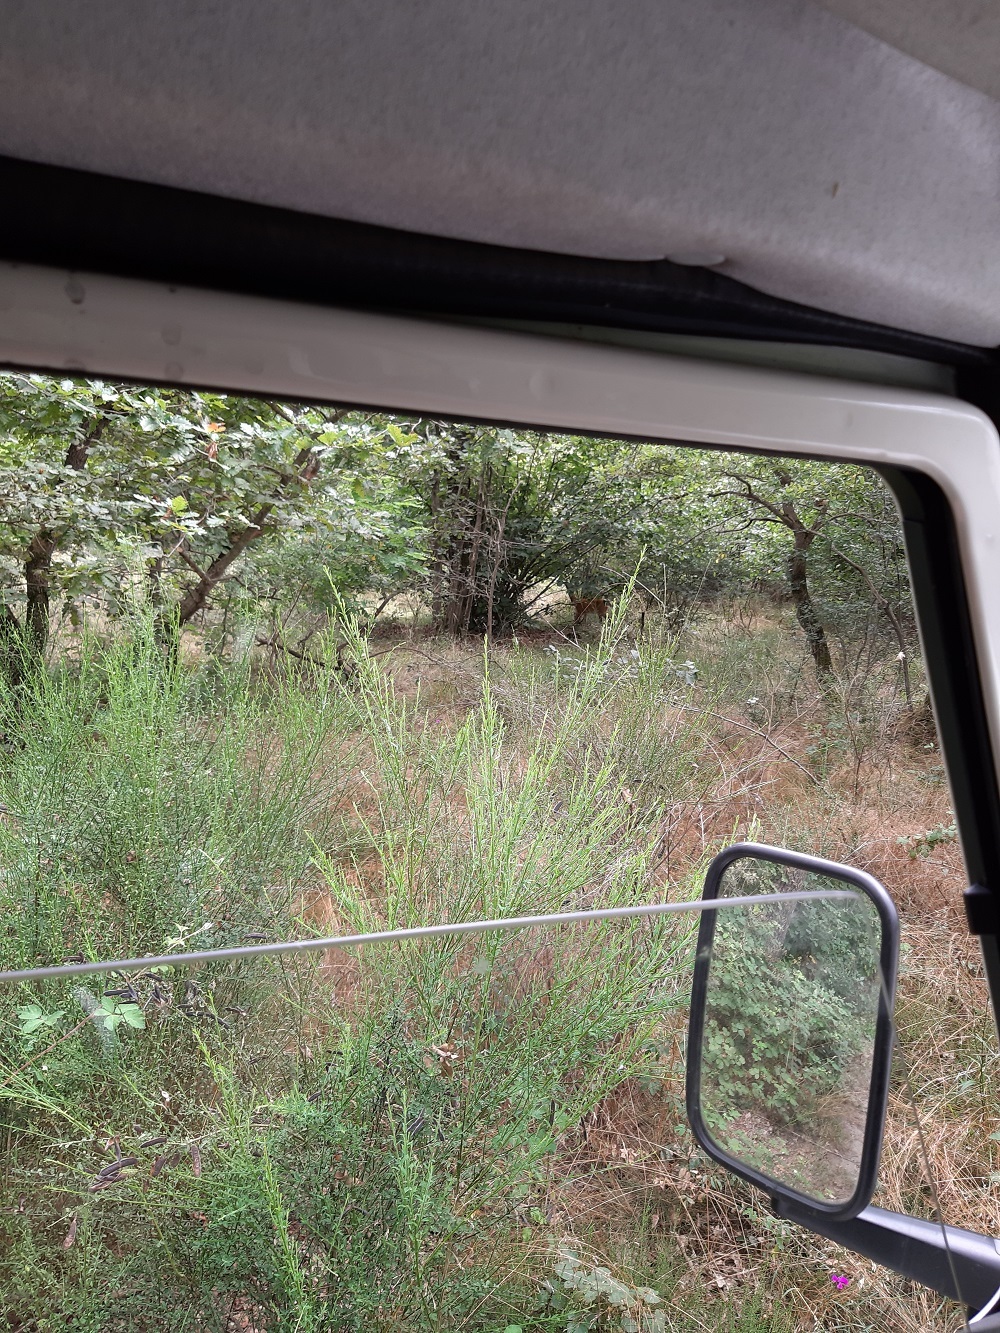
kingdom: Animalia
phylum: Chordata
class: Mammalia
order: Artiodactyla
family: Cervidae
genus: Capreolus
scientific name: Capreolus capreolus
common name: Western roe deer
